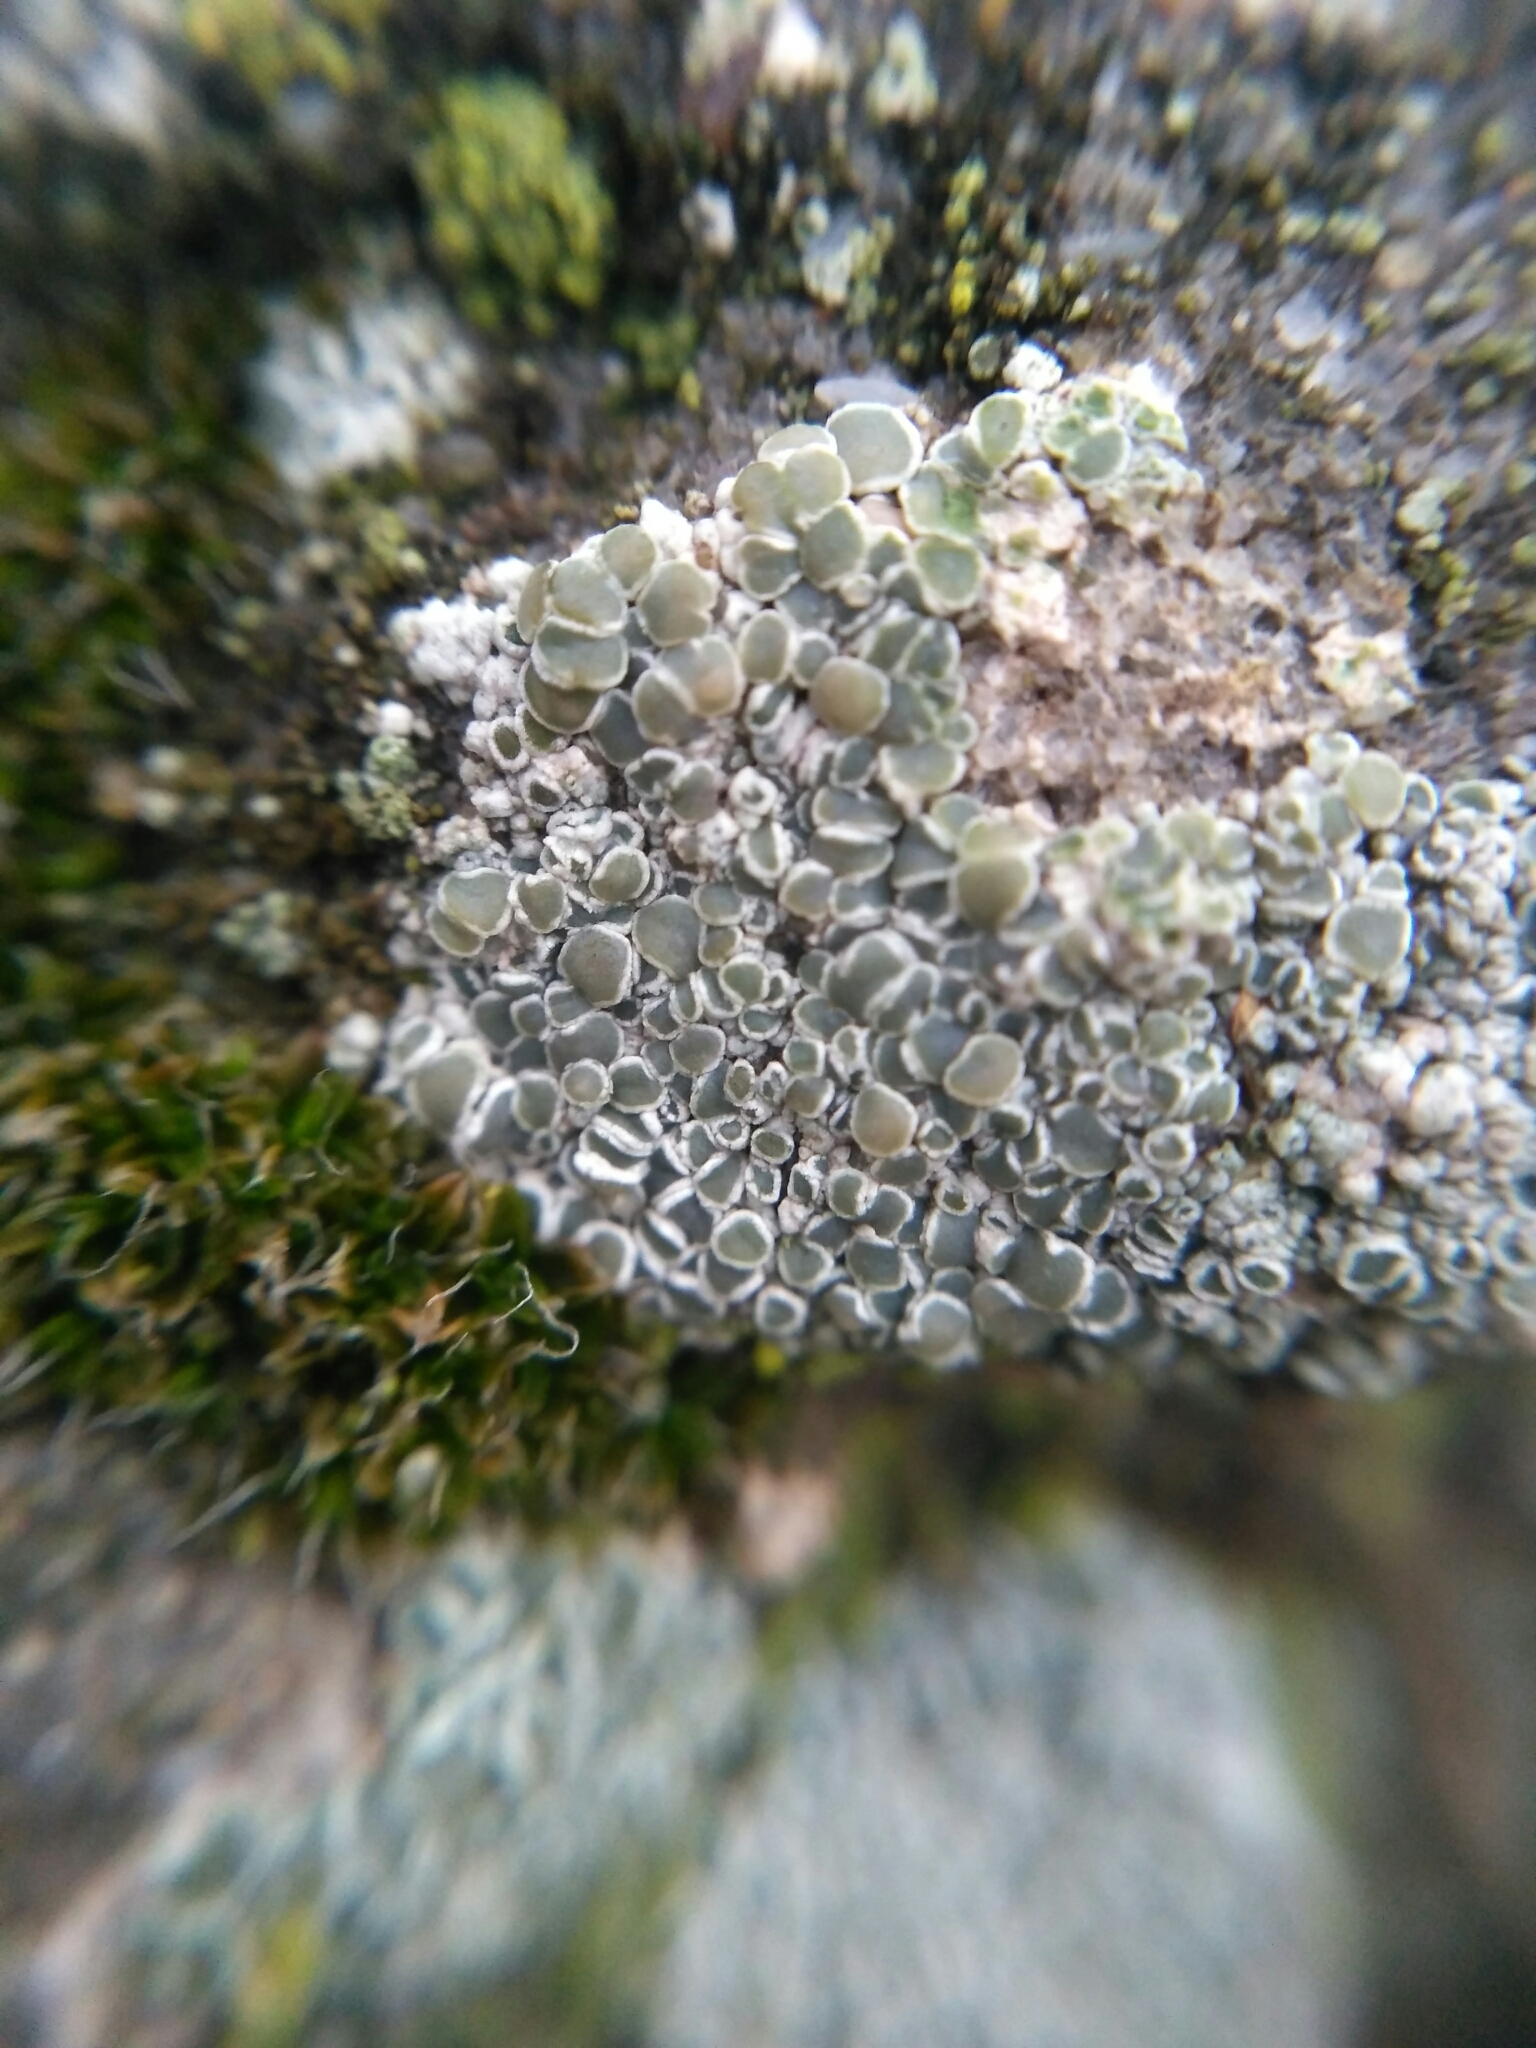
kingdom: Fungi
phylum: Ascomycota
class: Lecanoromycetes
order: Lecanorales
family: Lecanoraceae
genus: Polyozosia
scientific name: Polyozosia albescens
